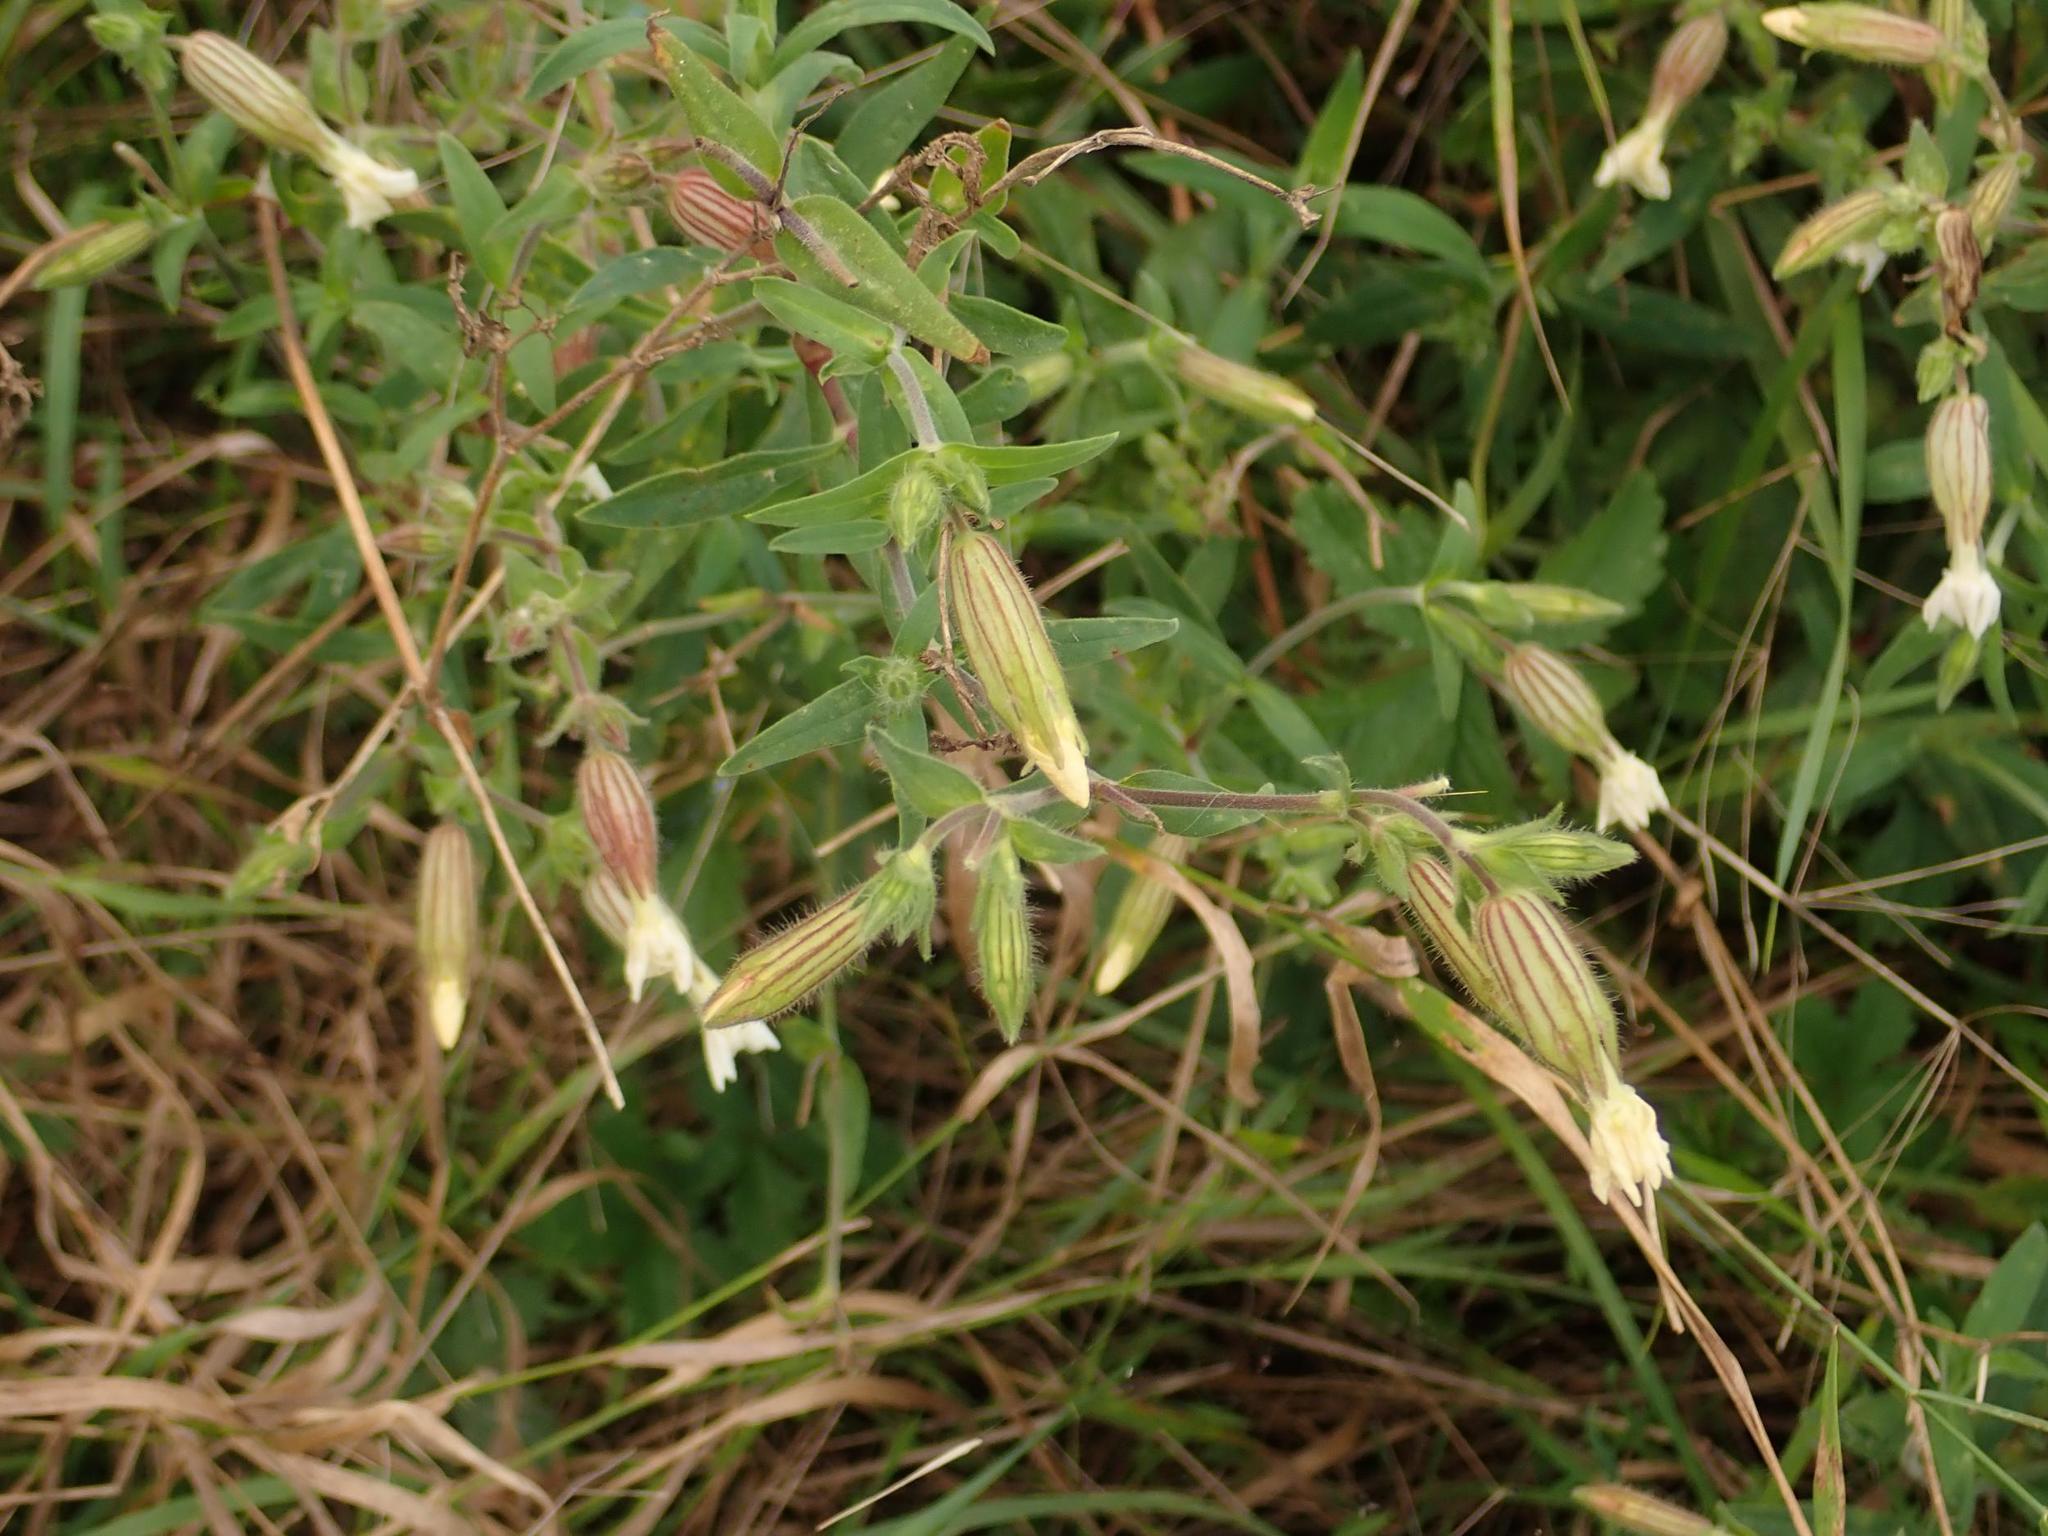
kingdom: Plantae
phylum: Tracheophyta
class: Magnoliopsida
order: Caryophyllales
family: Caryophyllaceae
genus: Silene
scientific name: Silene latifolia
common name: White campion
